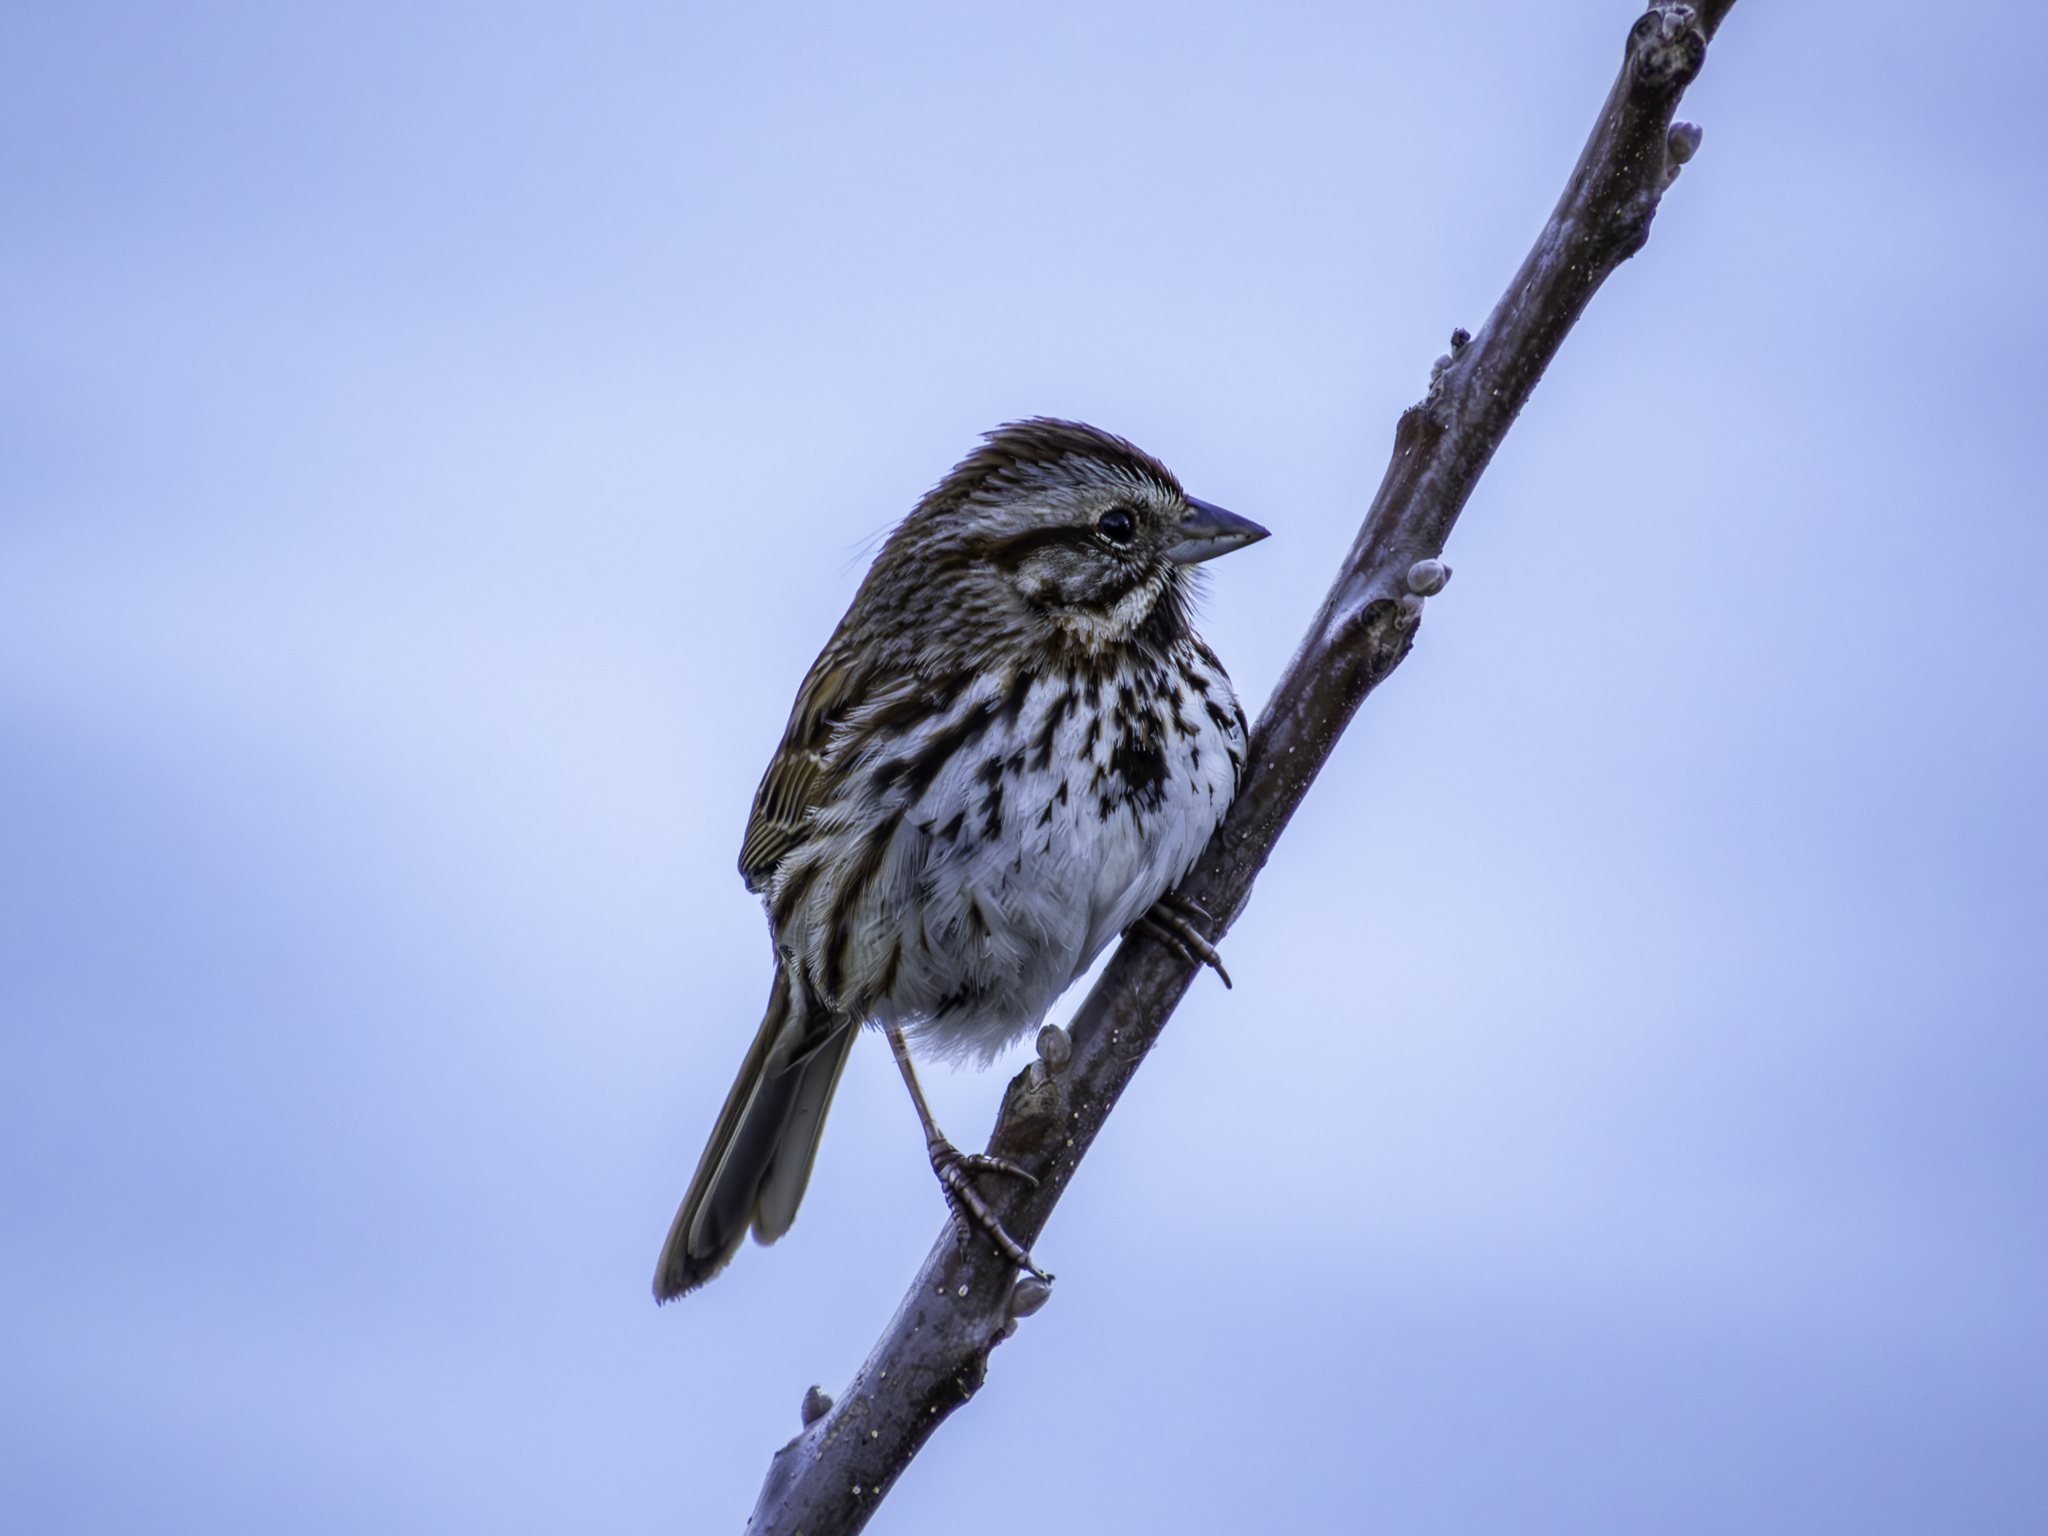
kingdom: Animalia
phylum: Chordata
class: Aves
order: Passeriformes
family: Passerellidae
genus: Melospiza
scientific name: Melospiza melodia
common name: Song sparrow
